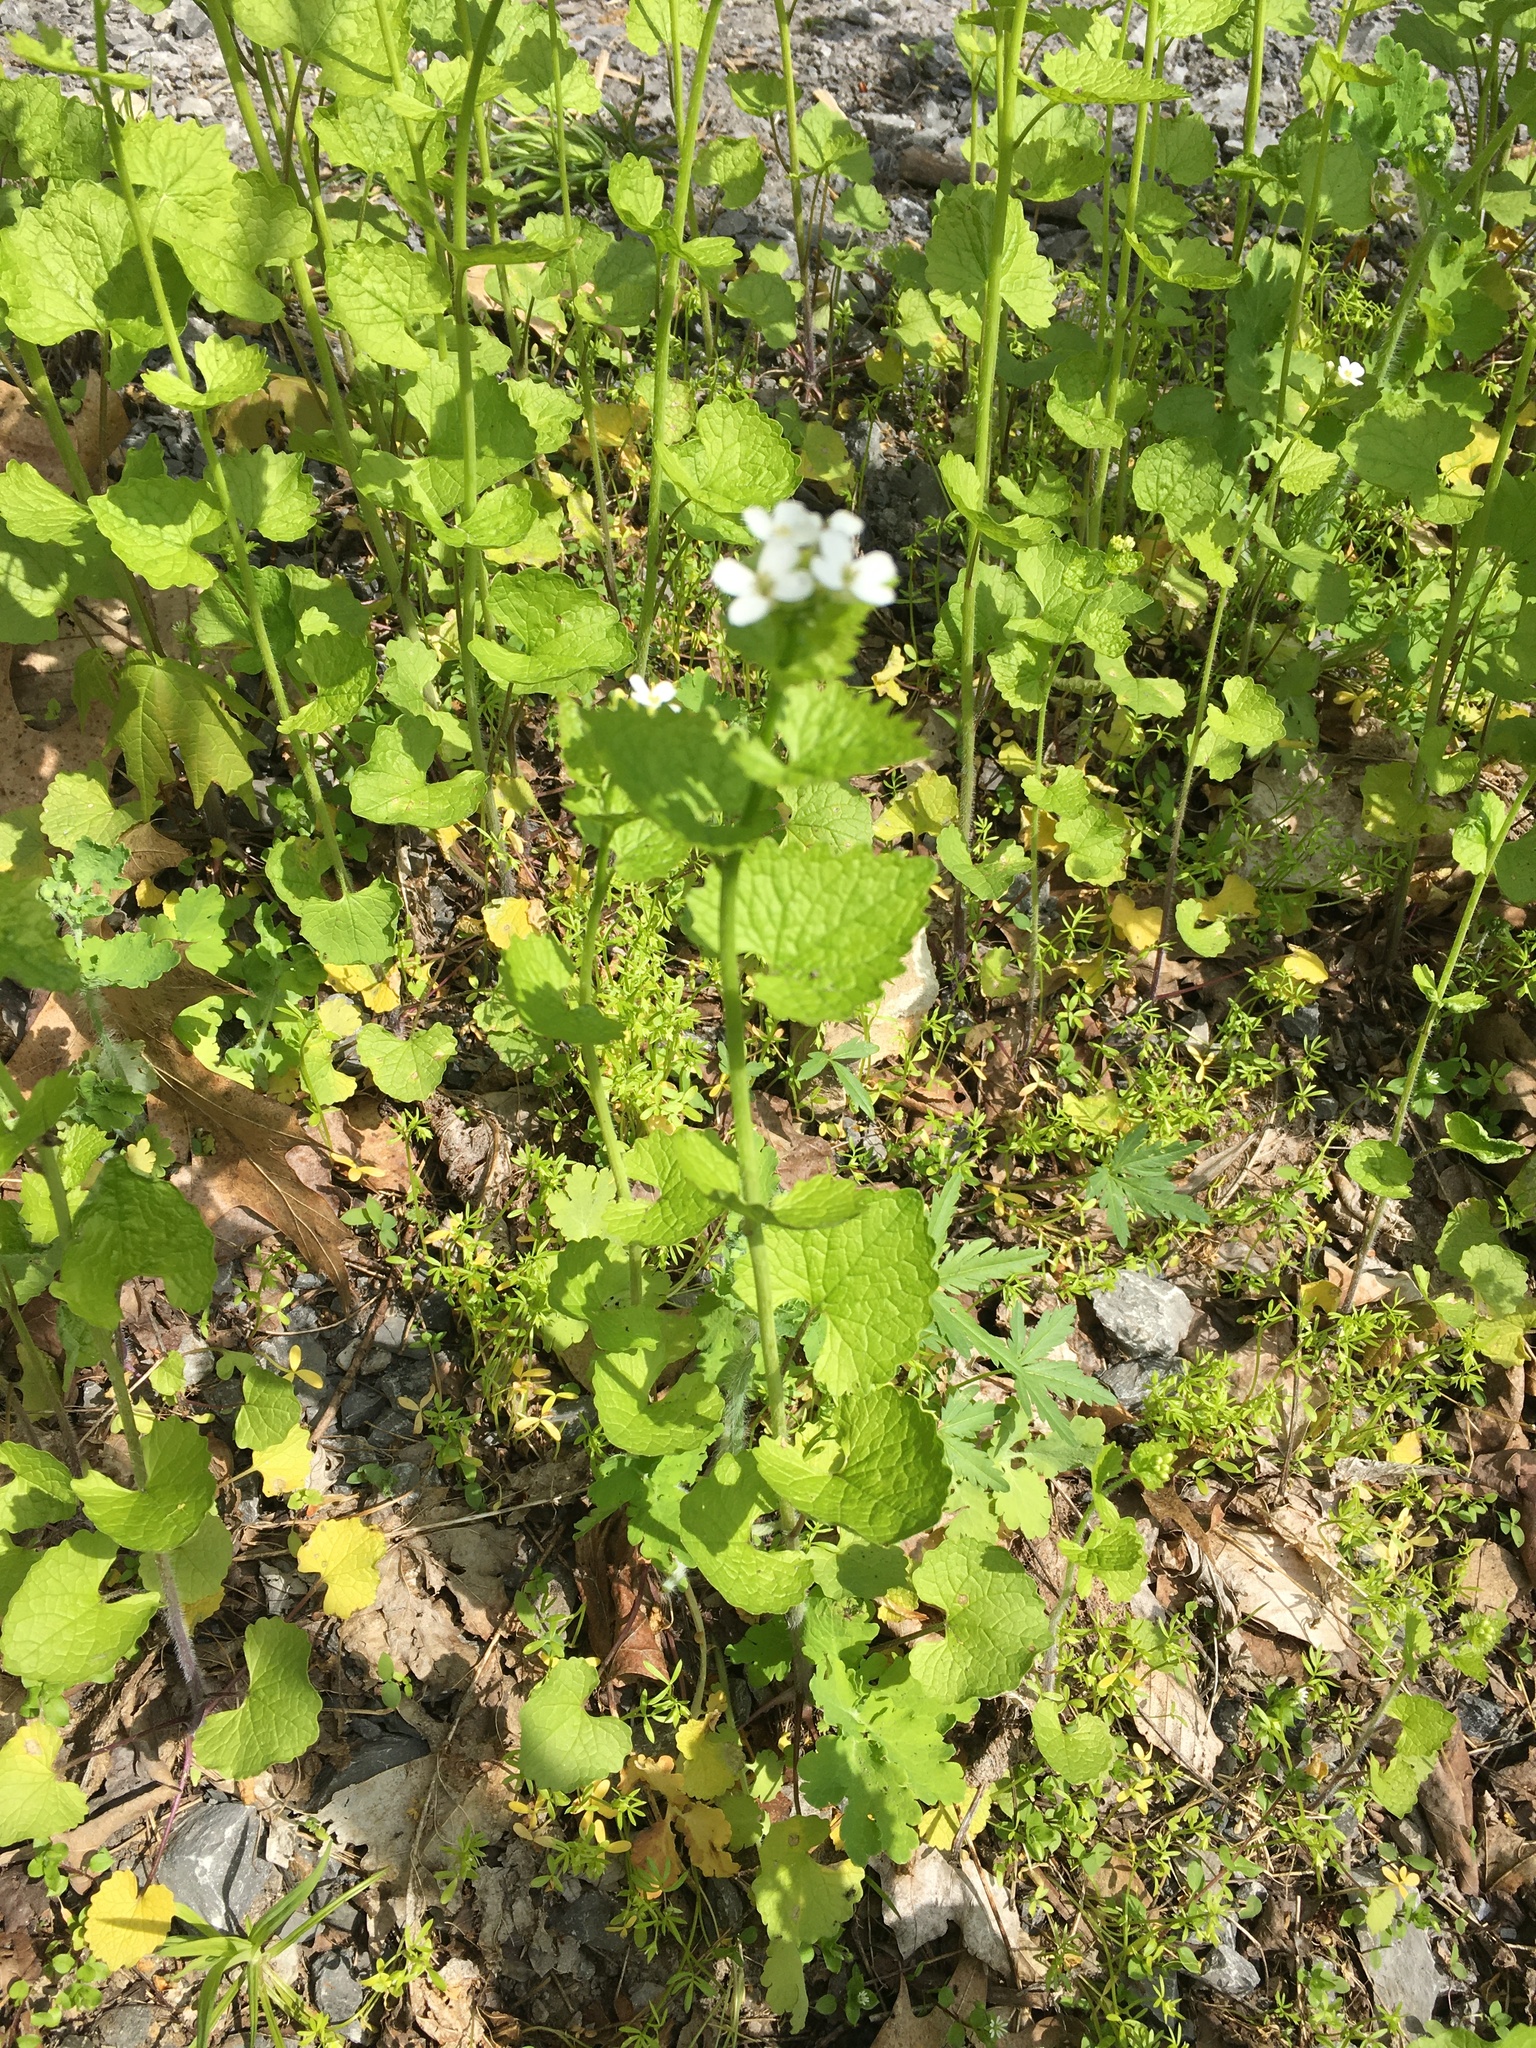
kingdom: Plantae
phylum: Tracheophyta
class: Magnoliopsida
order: Brassicales
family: Brassicaceae
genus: Alliaria
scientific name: Alliaria petiolata
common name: Garlic mustard
